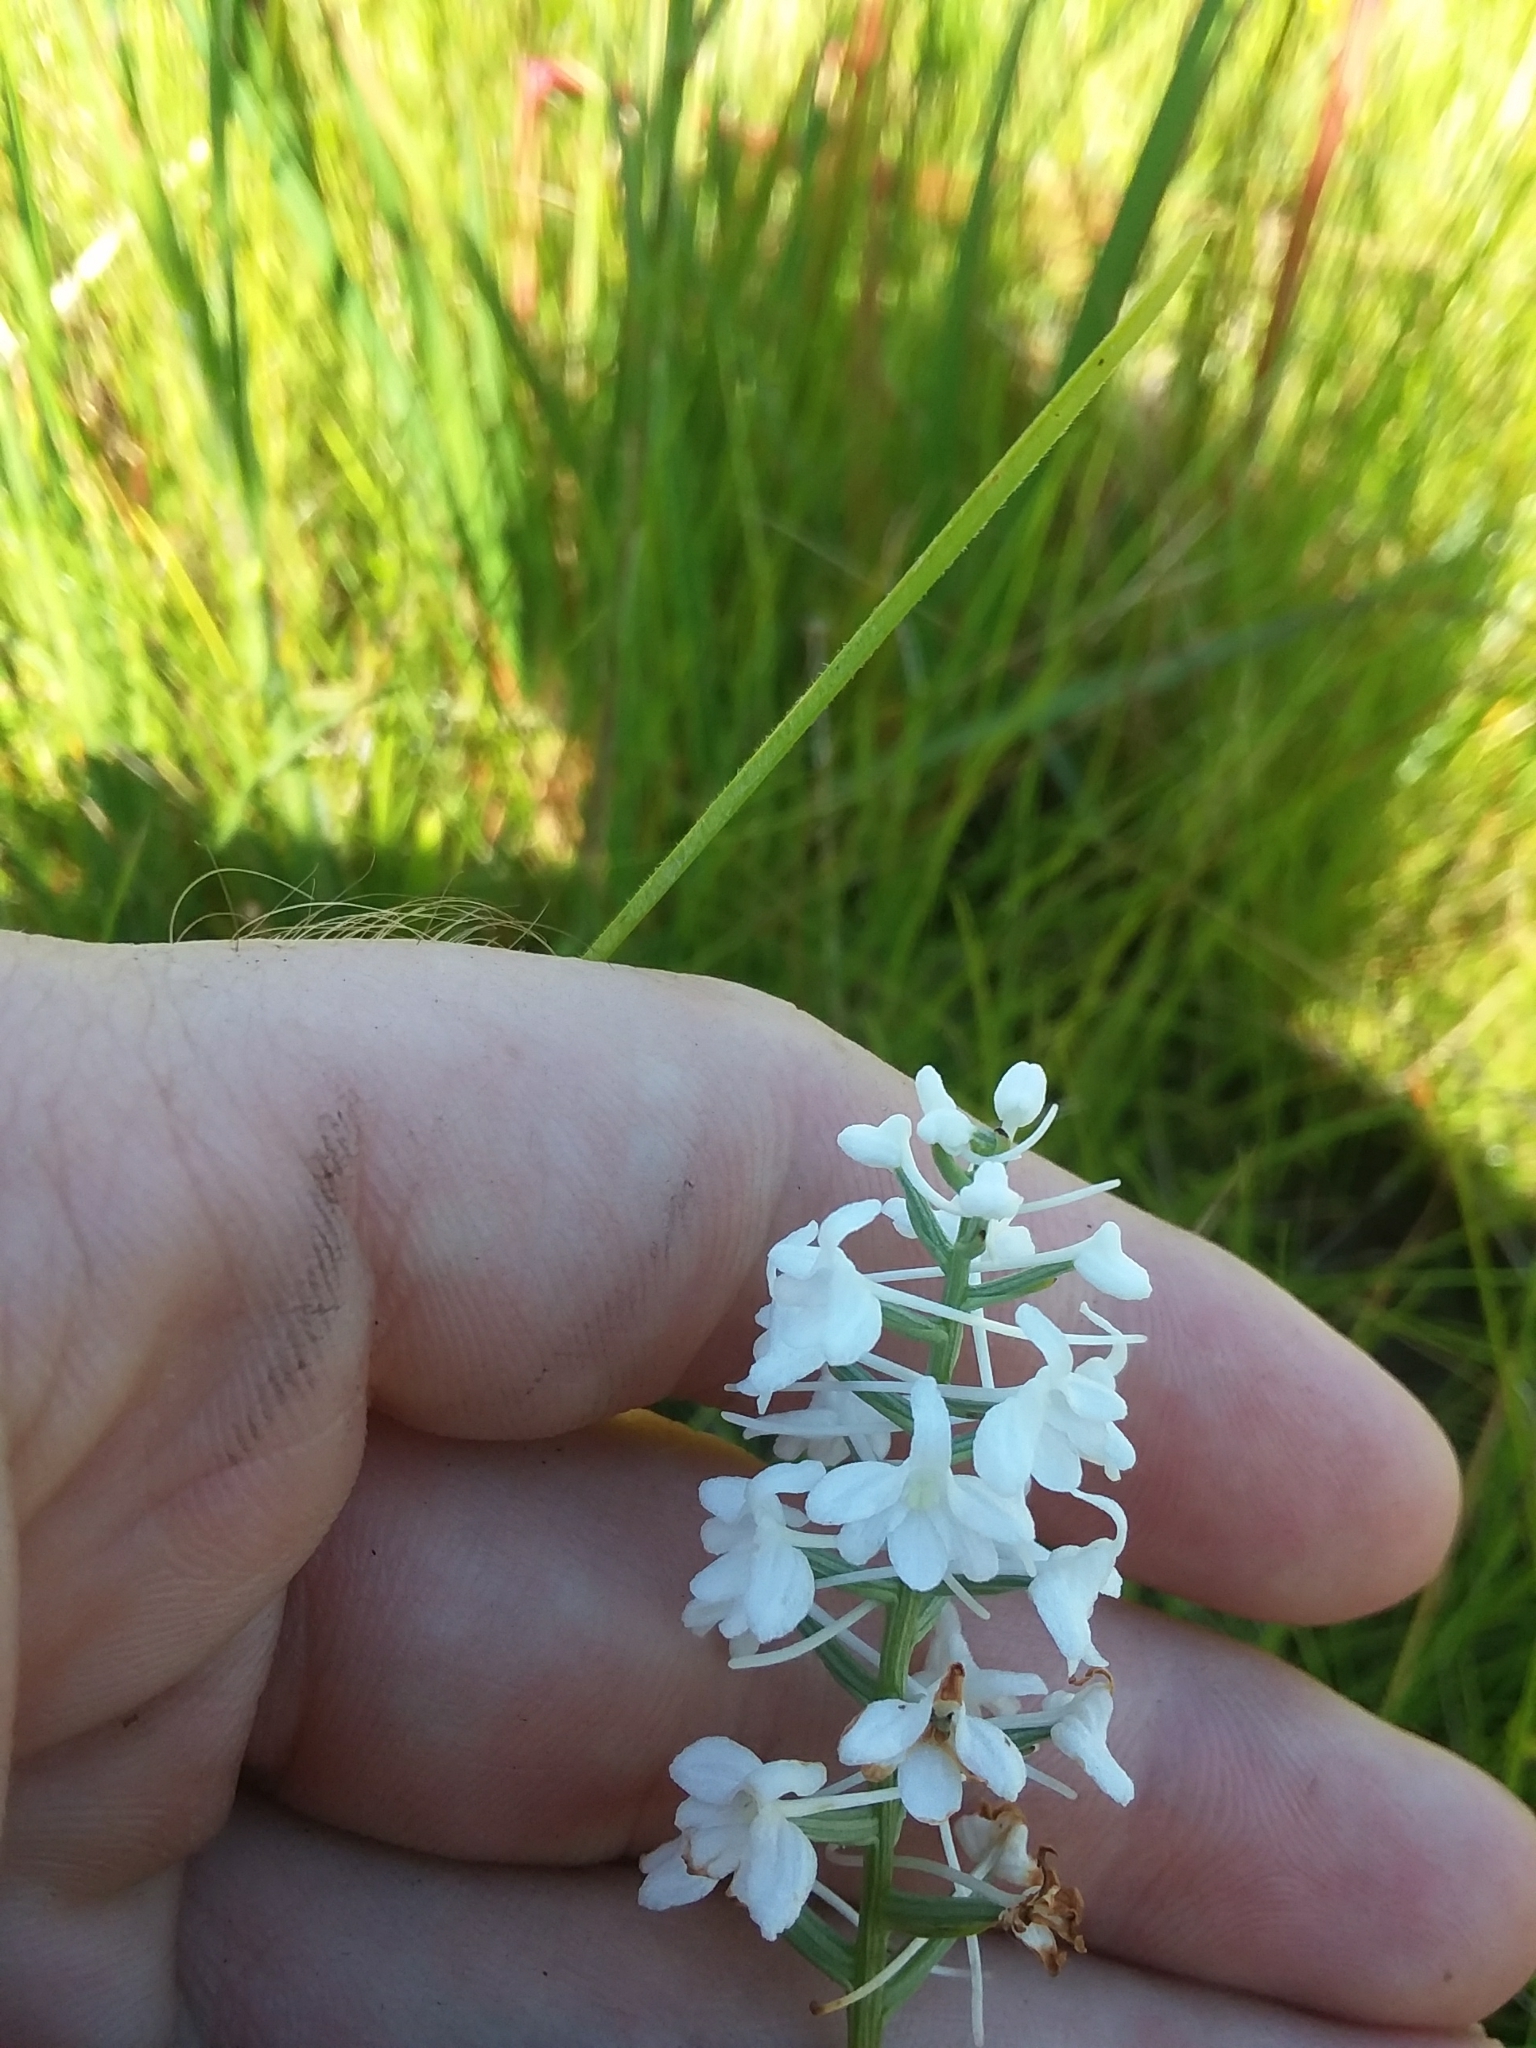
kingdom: Plantae
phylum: Tracheophyta
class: Liliopsida
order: Asparagales
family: Orchidaceae
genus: Platanthera
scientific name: Platanthera nivea
